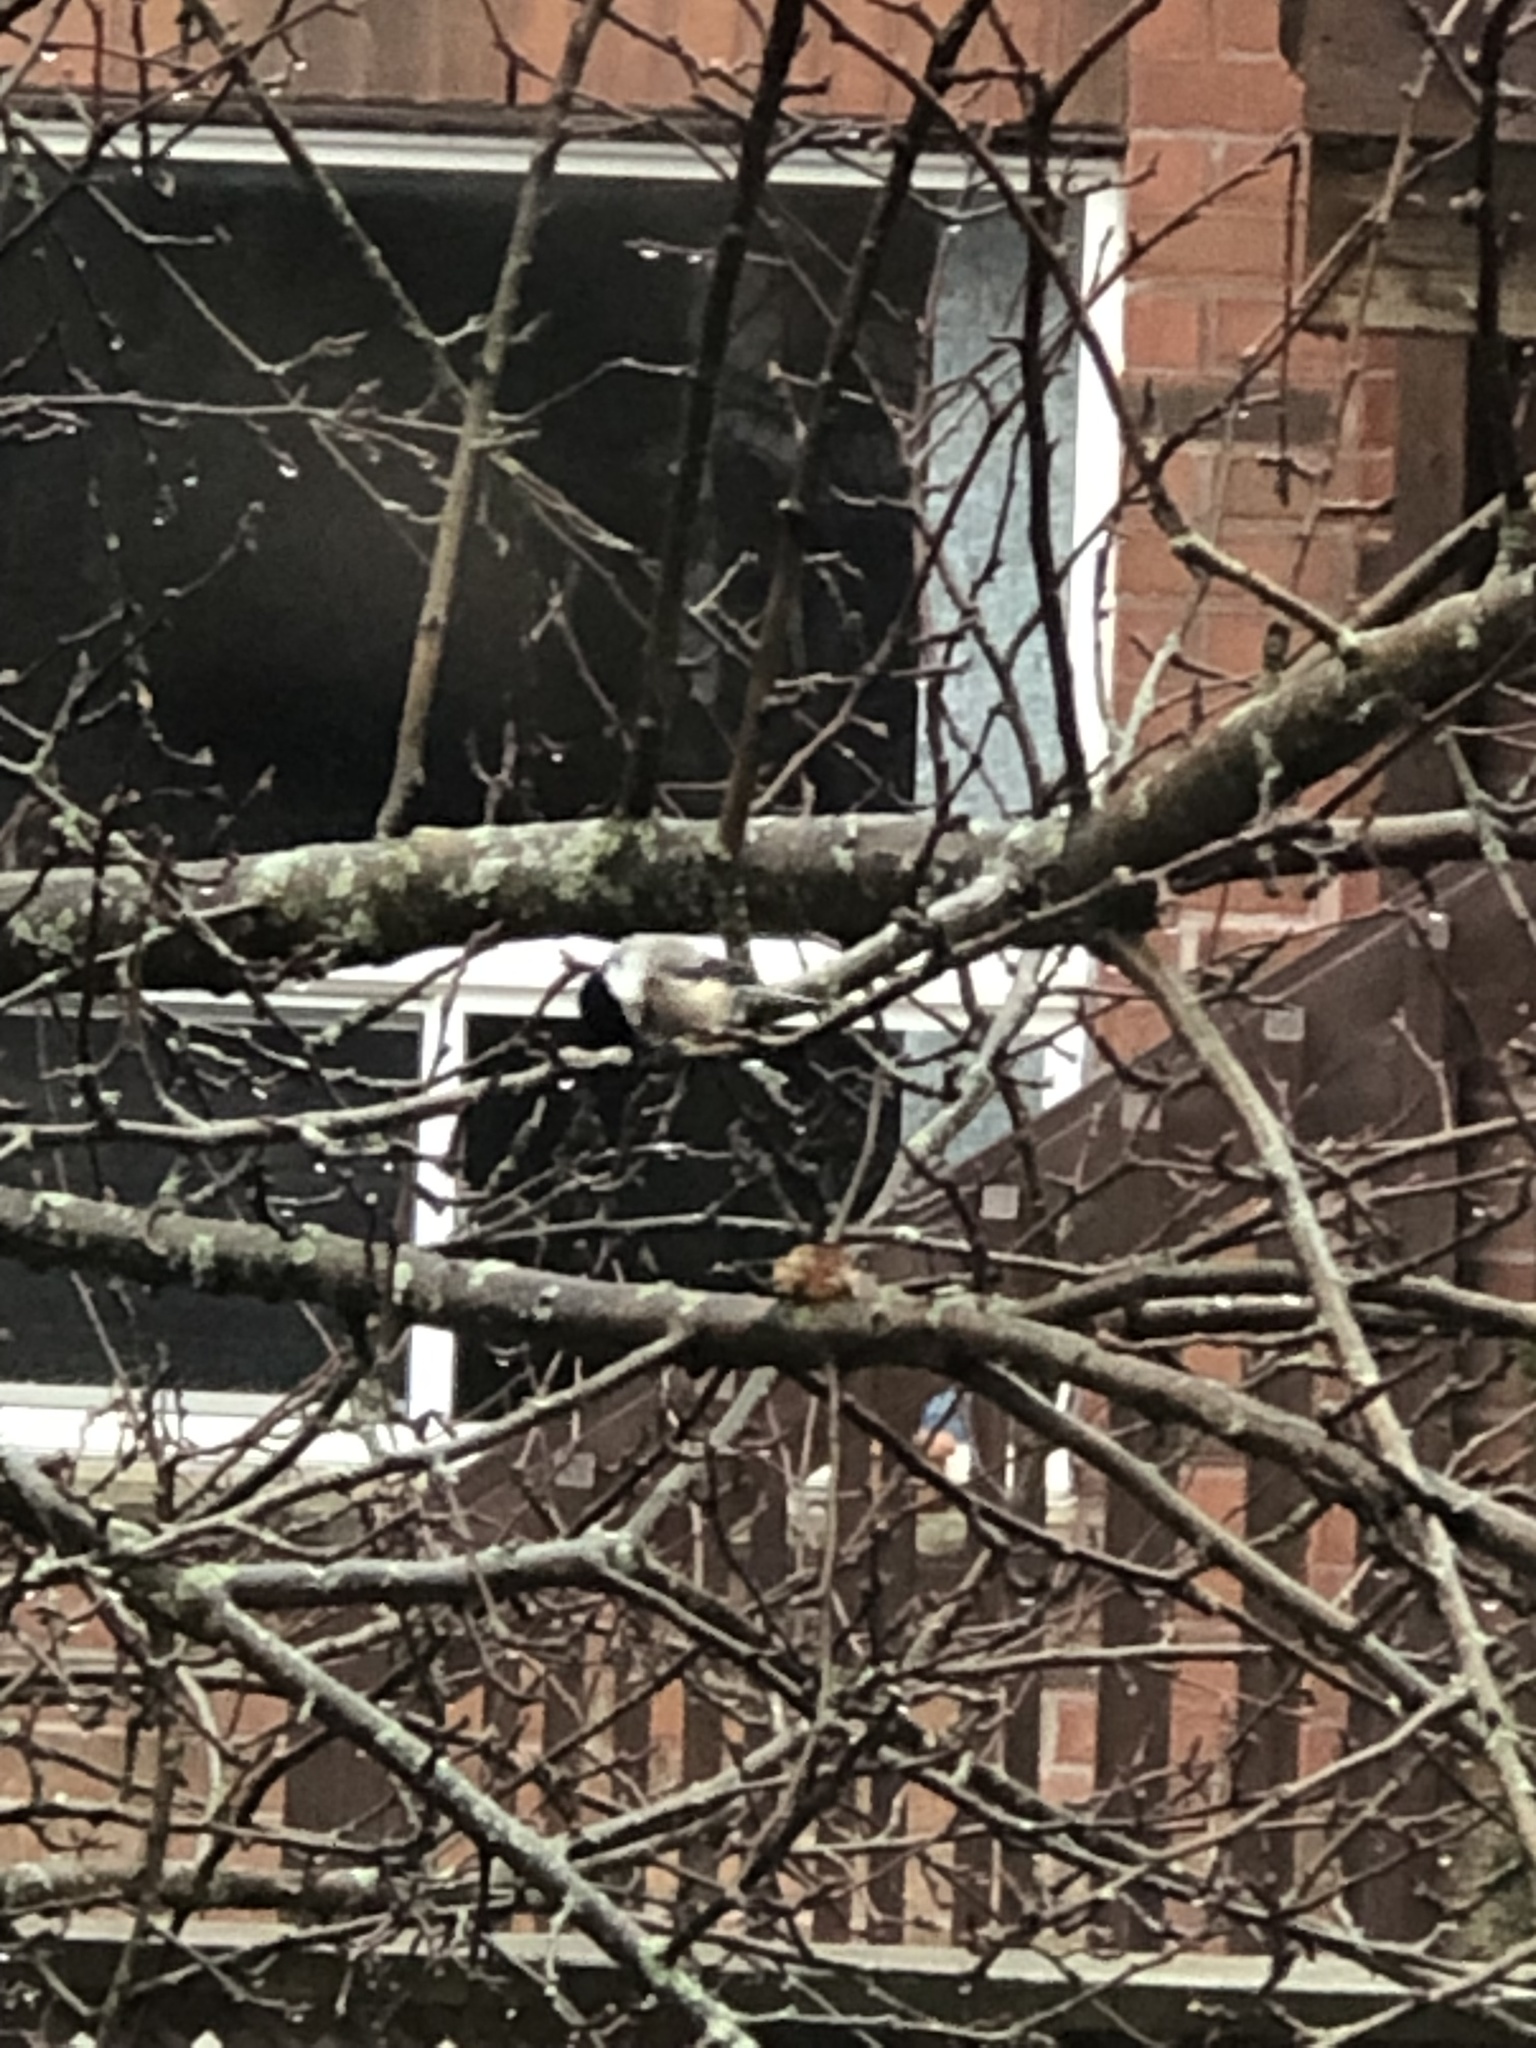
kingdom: Animalia
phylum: Chordata
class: Aves
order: Passeriformes
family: Paridae
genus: Poecile
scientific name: Poecile atricapillus
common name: Black-capped chickadee
